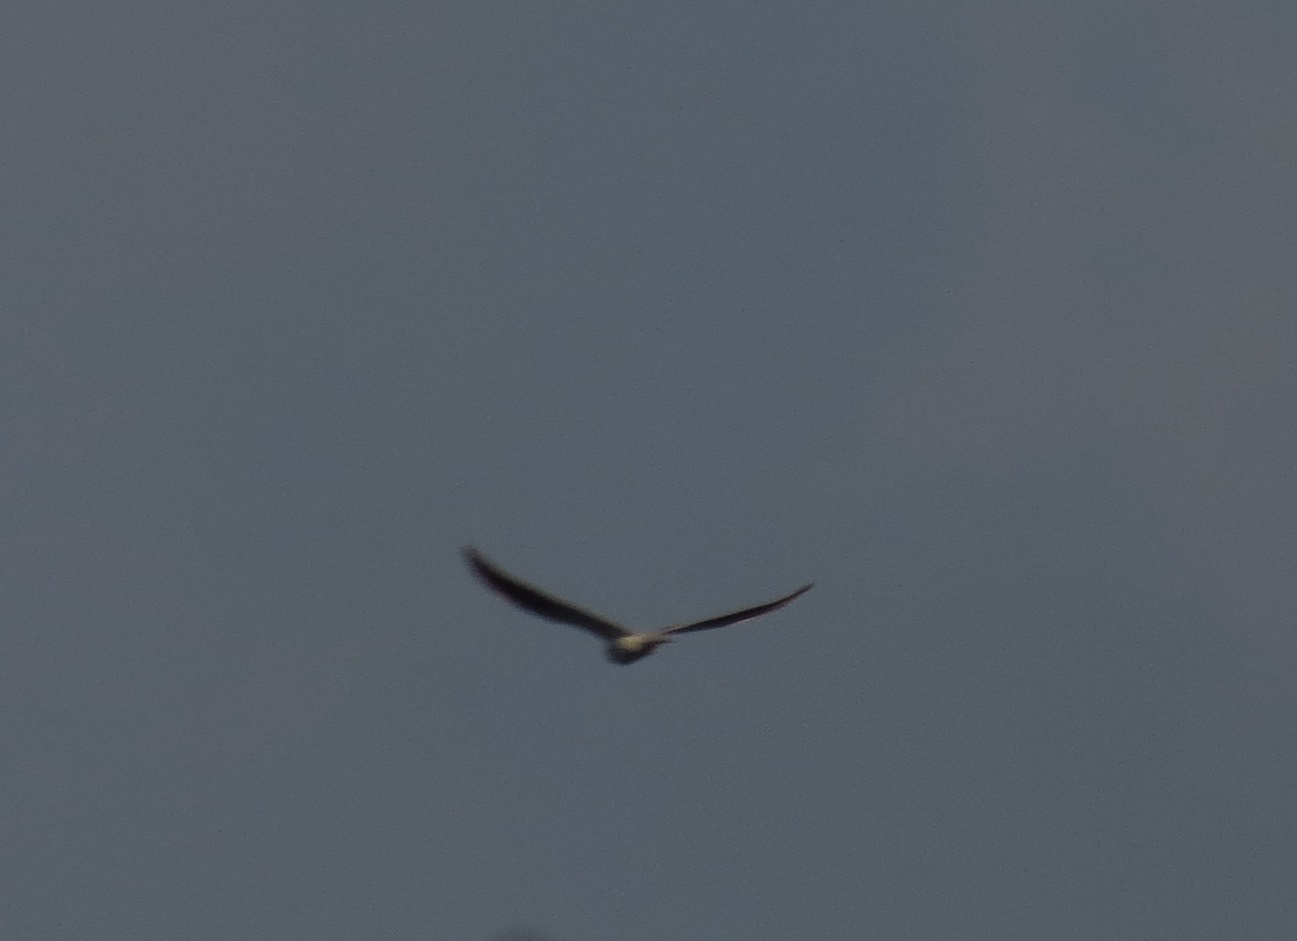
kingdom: Animalia
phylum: Chordata
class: Aves
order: Accipitriformes
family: Accipitridae
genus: Elanus
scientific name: Elanus leucurus
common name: White-tailed kite
